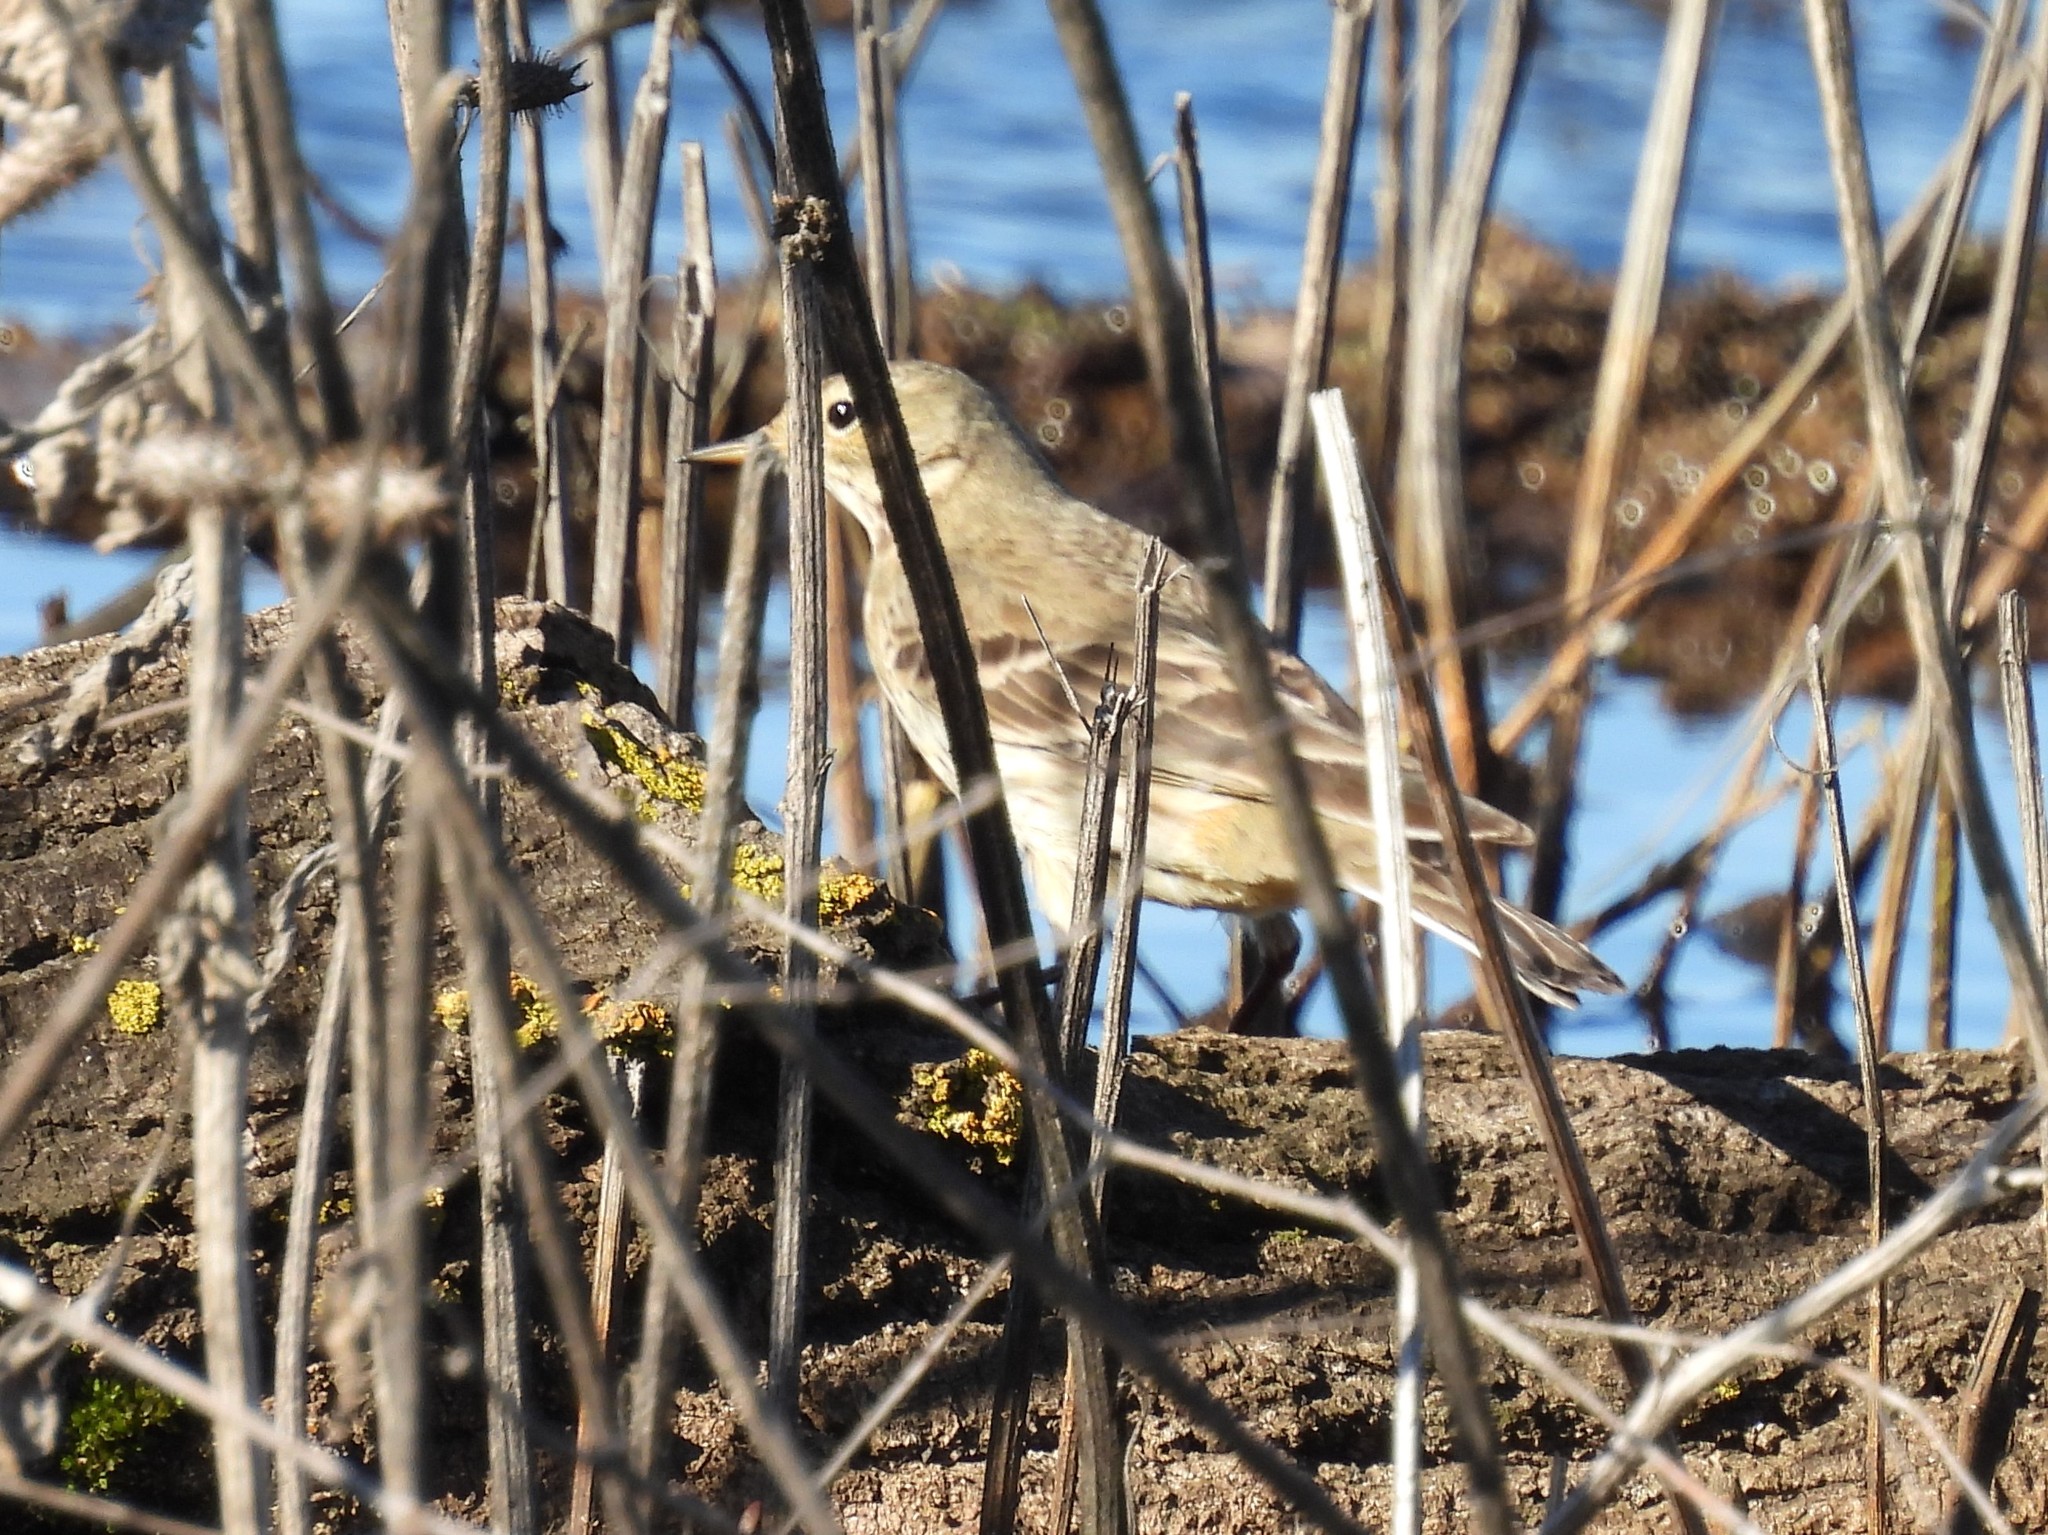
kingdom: Animalia
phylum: Chordata
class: Aves
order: Passeriformes
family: Motacillidae
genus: Anthus
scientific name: Anthus rubescens
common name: Buff-bellied pipit
